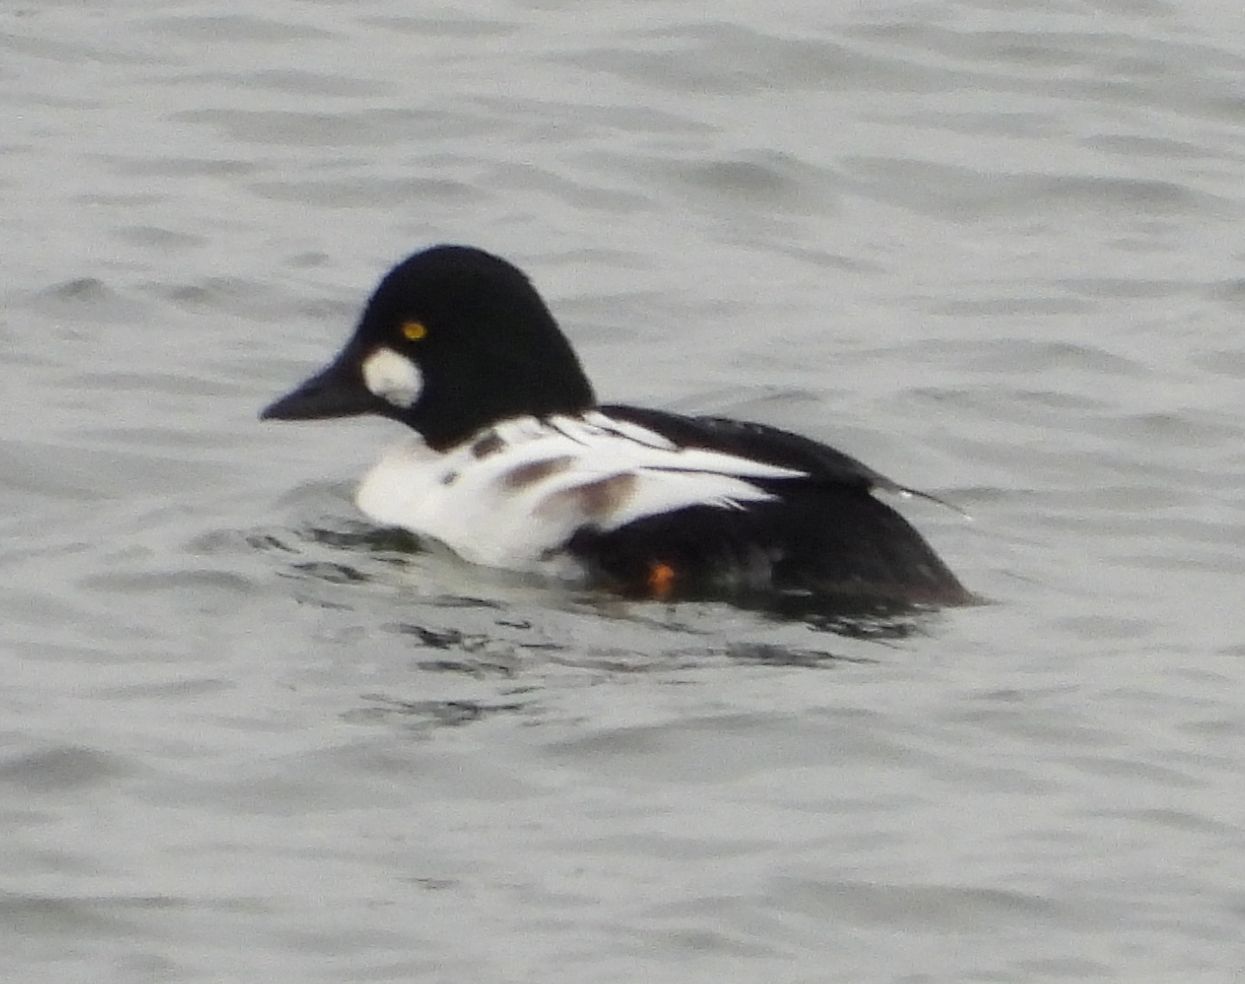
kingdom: Animalia
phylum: Chordata
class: Aves
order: Anseriformes
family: Anatidae
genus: Bucephala
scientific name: Bucephala clangula
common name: Common goldeneye
